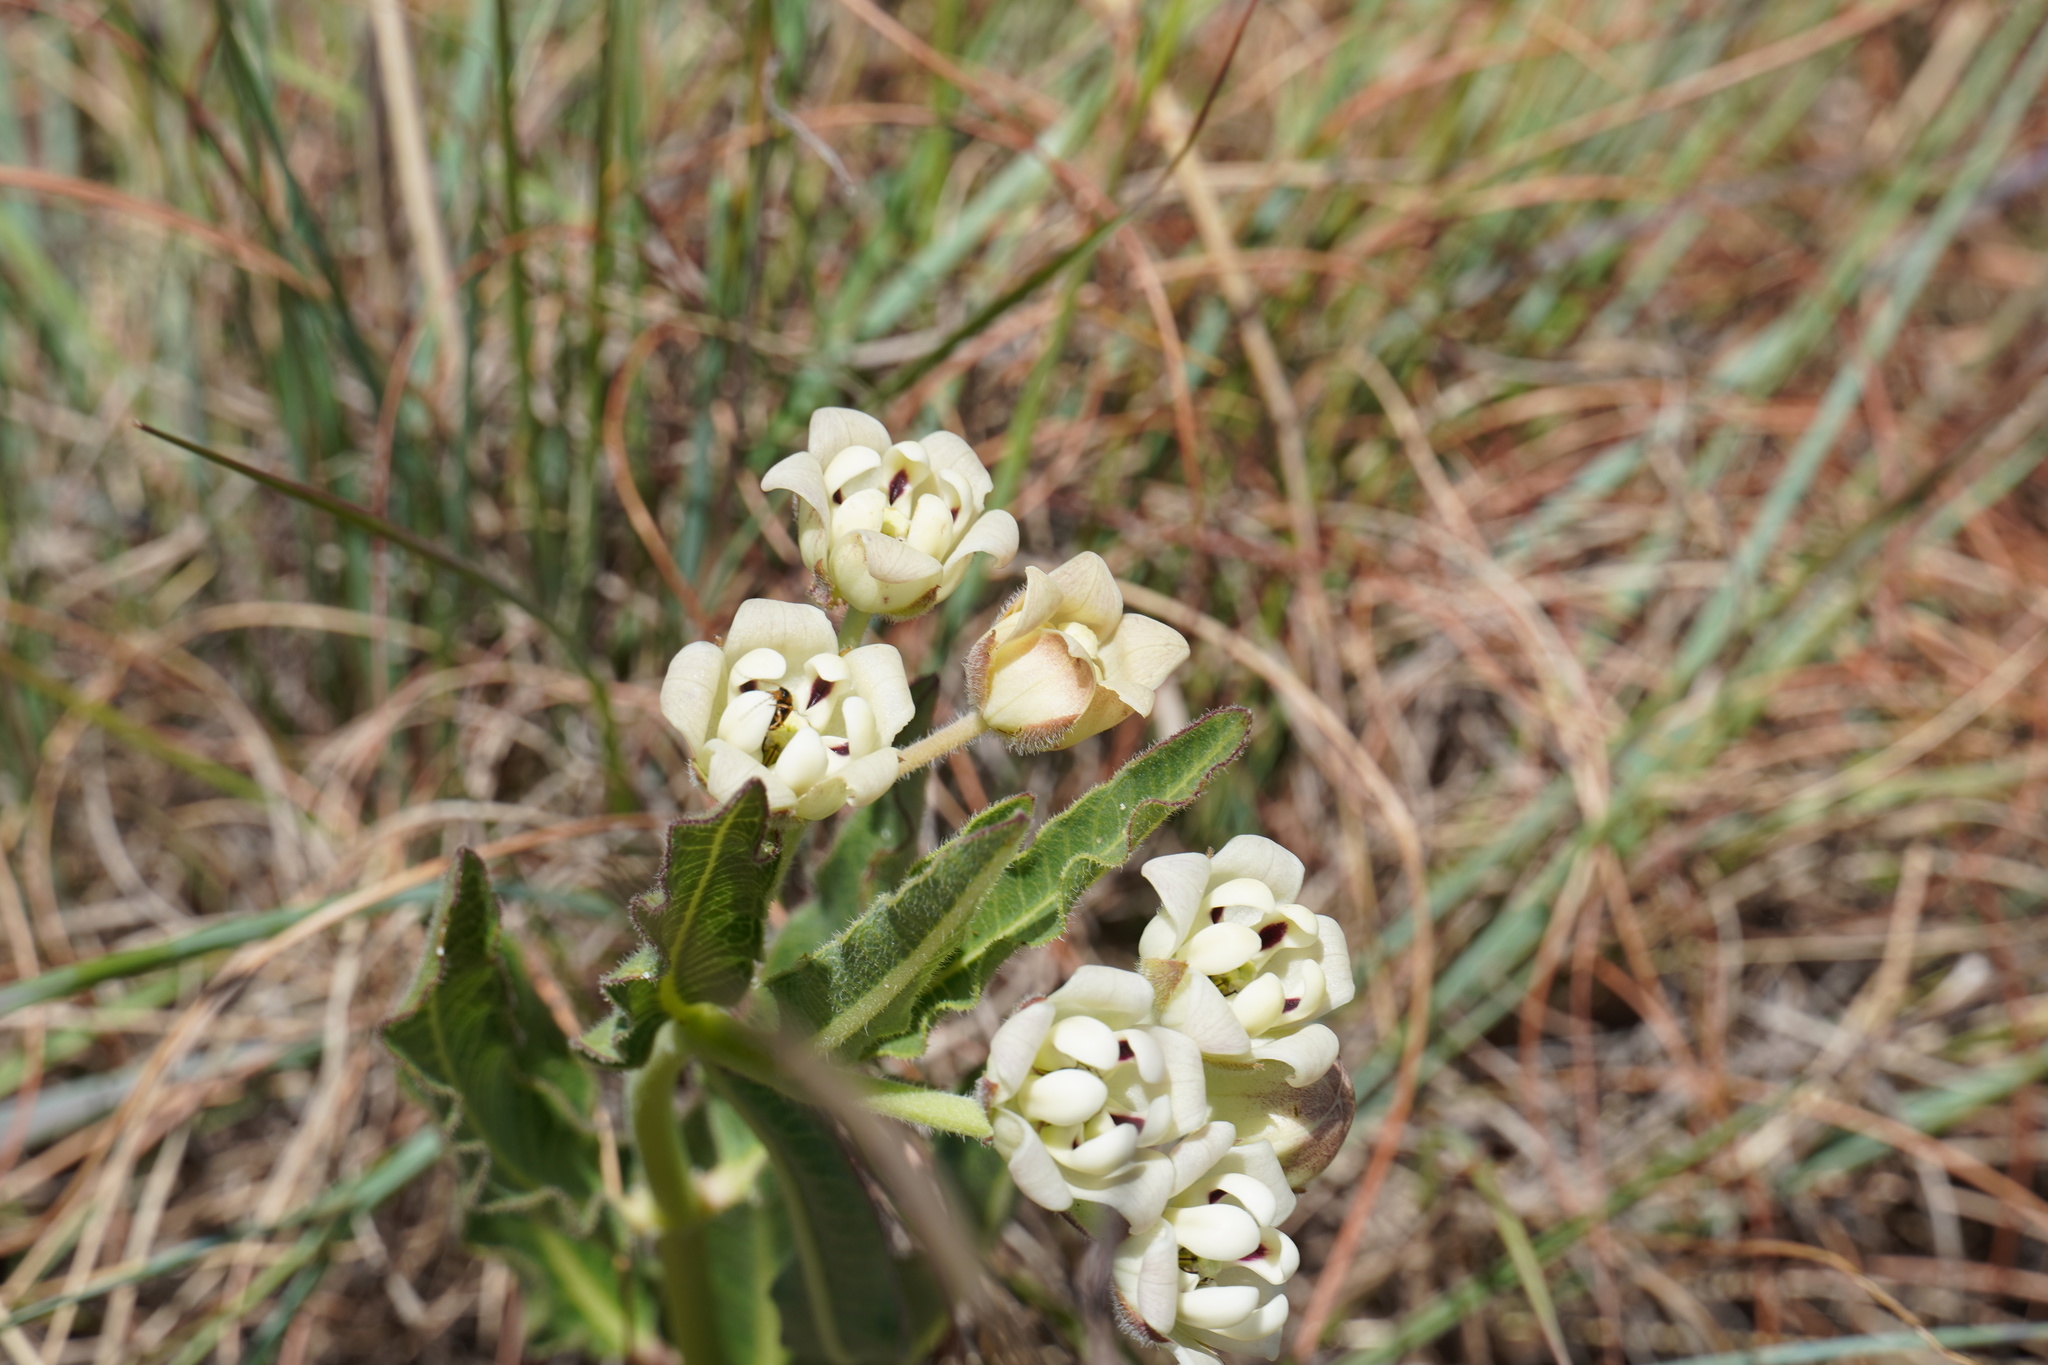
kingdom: Plantae
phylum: Tracheophyta
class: Magnoliopsida
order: Gentianales
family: Apocynaceae
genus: Pachycarpus
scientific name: Pachycarpus schinzianus
